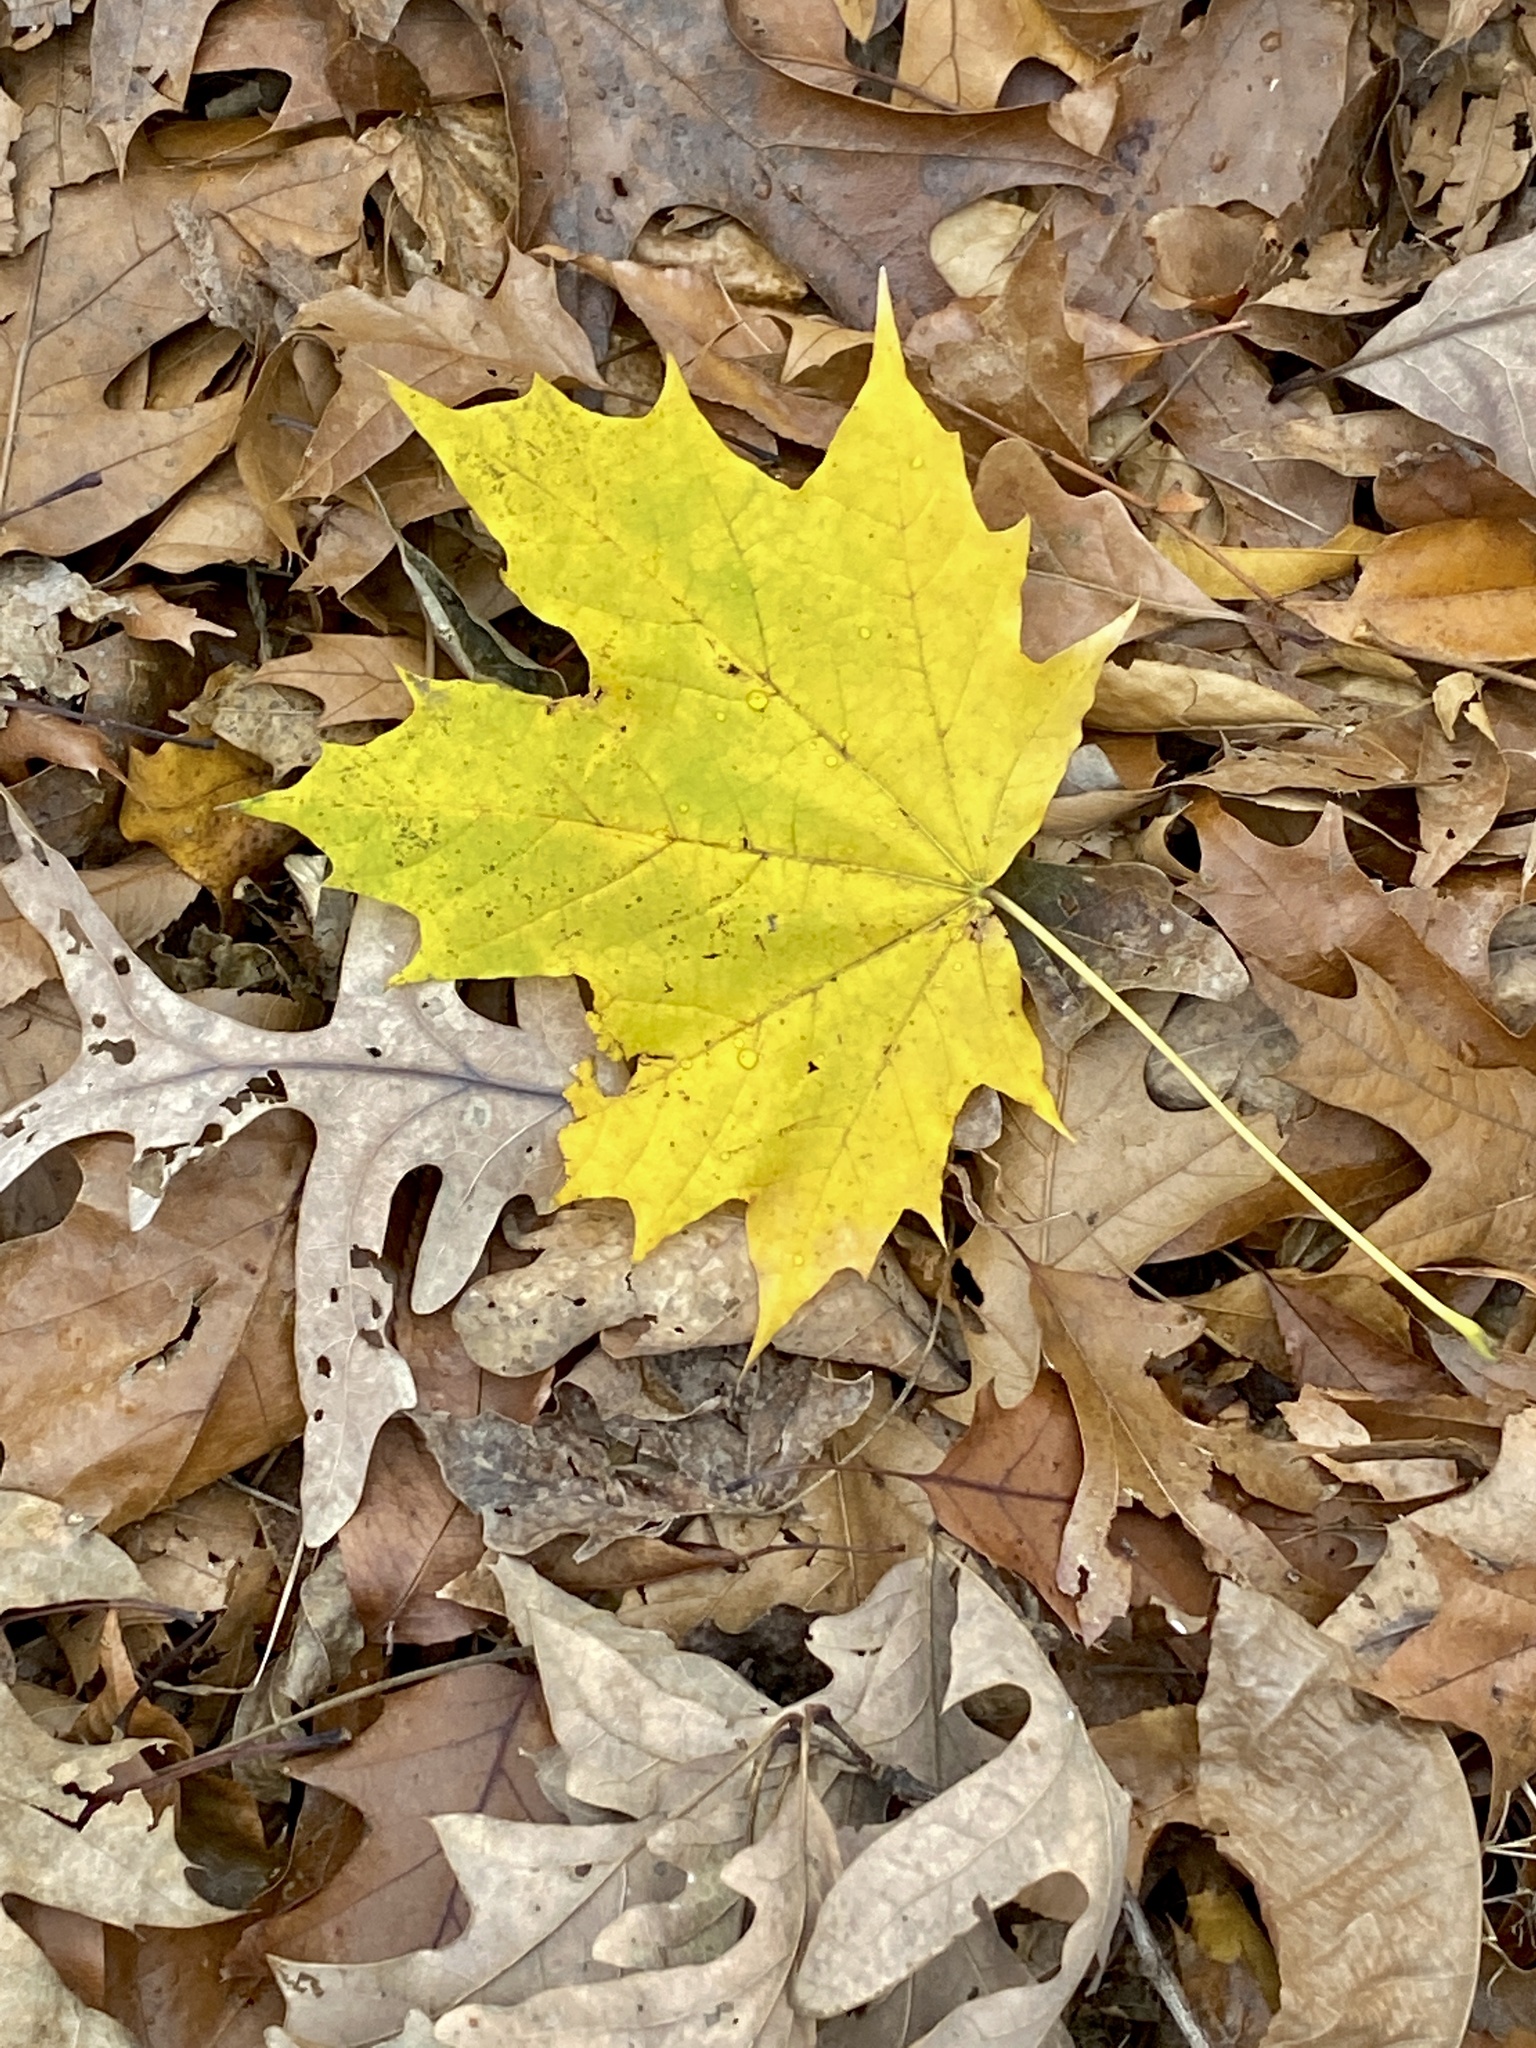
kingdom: Plantae
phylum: Tracheophyta
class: Magnoliopsida
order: Sapindales
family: Sapindaceae
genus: Acer
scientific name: Acer platanoides
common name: Norway maple
